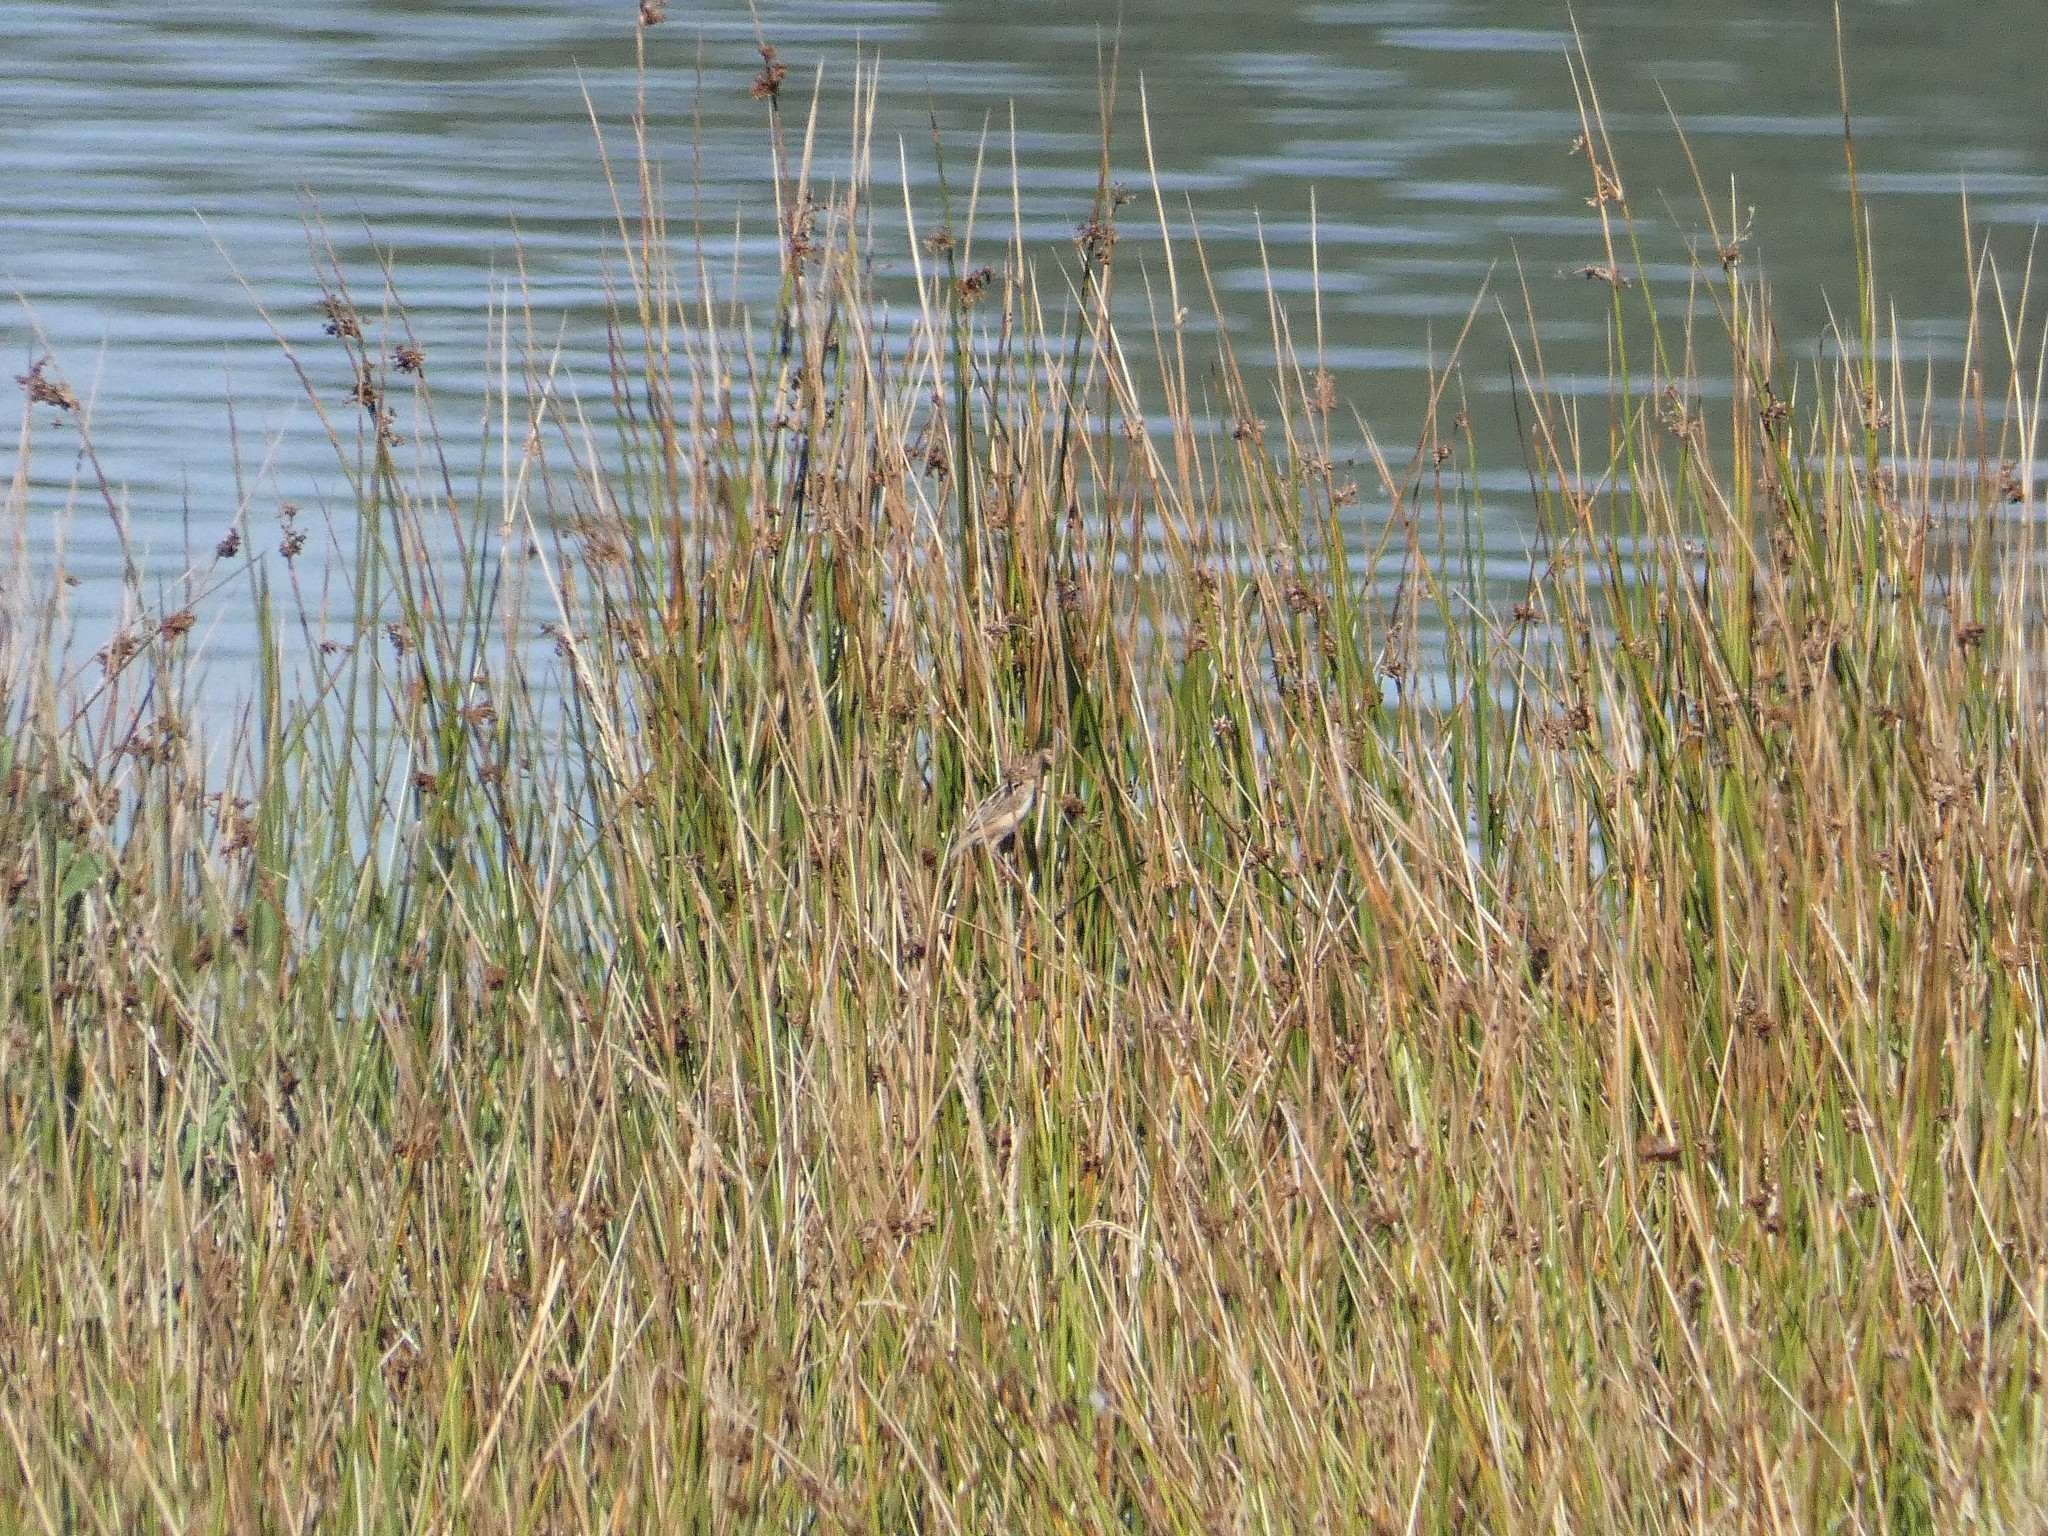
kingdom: Animalia
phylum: Chordata
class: Aves
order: Passeriformes
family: Cisticolidae
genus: Cisticola
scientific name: Cisticola juncidis
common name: Zitting cisticola
